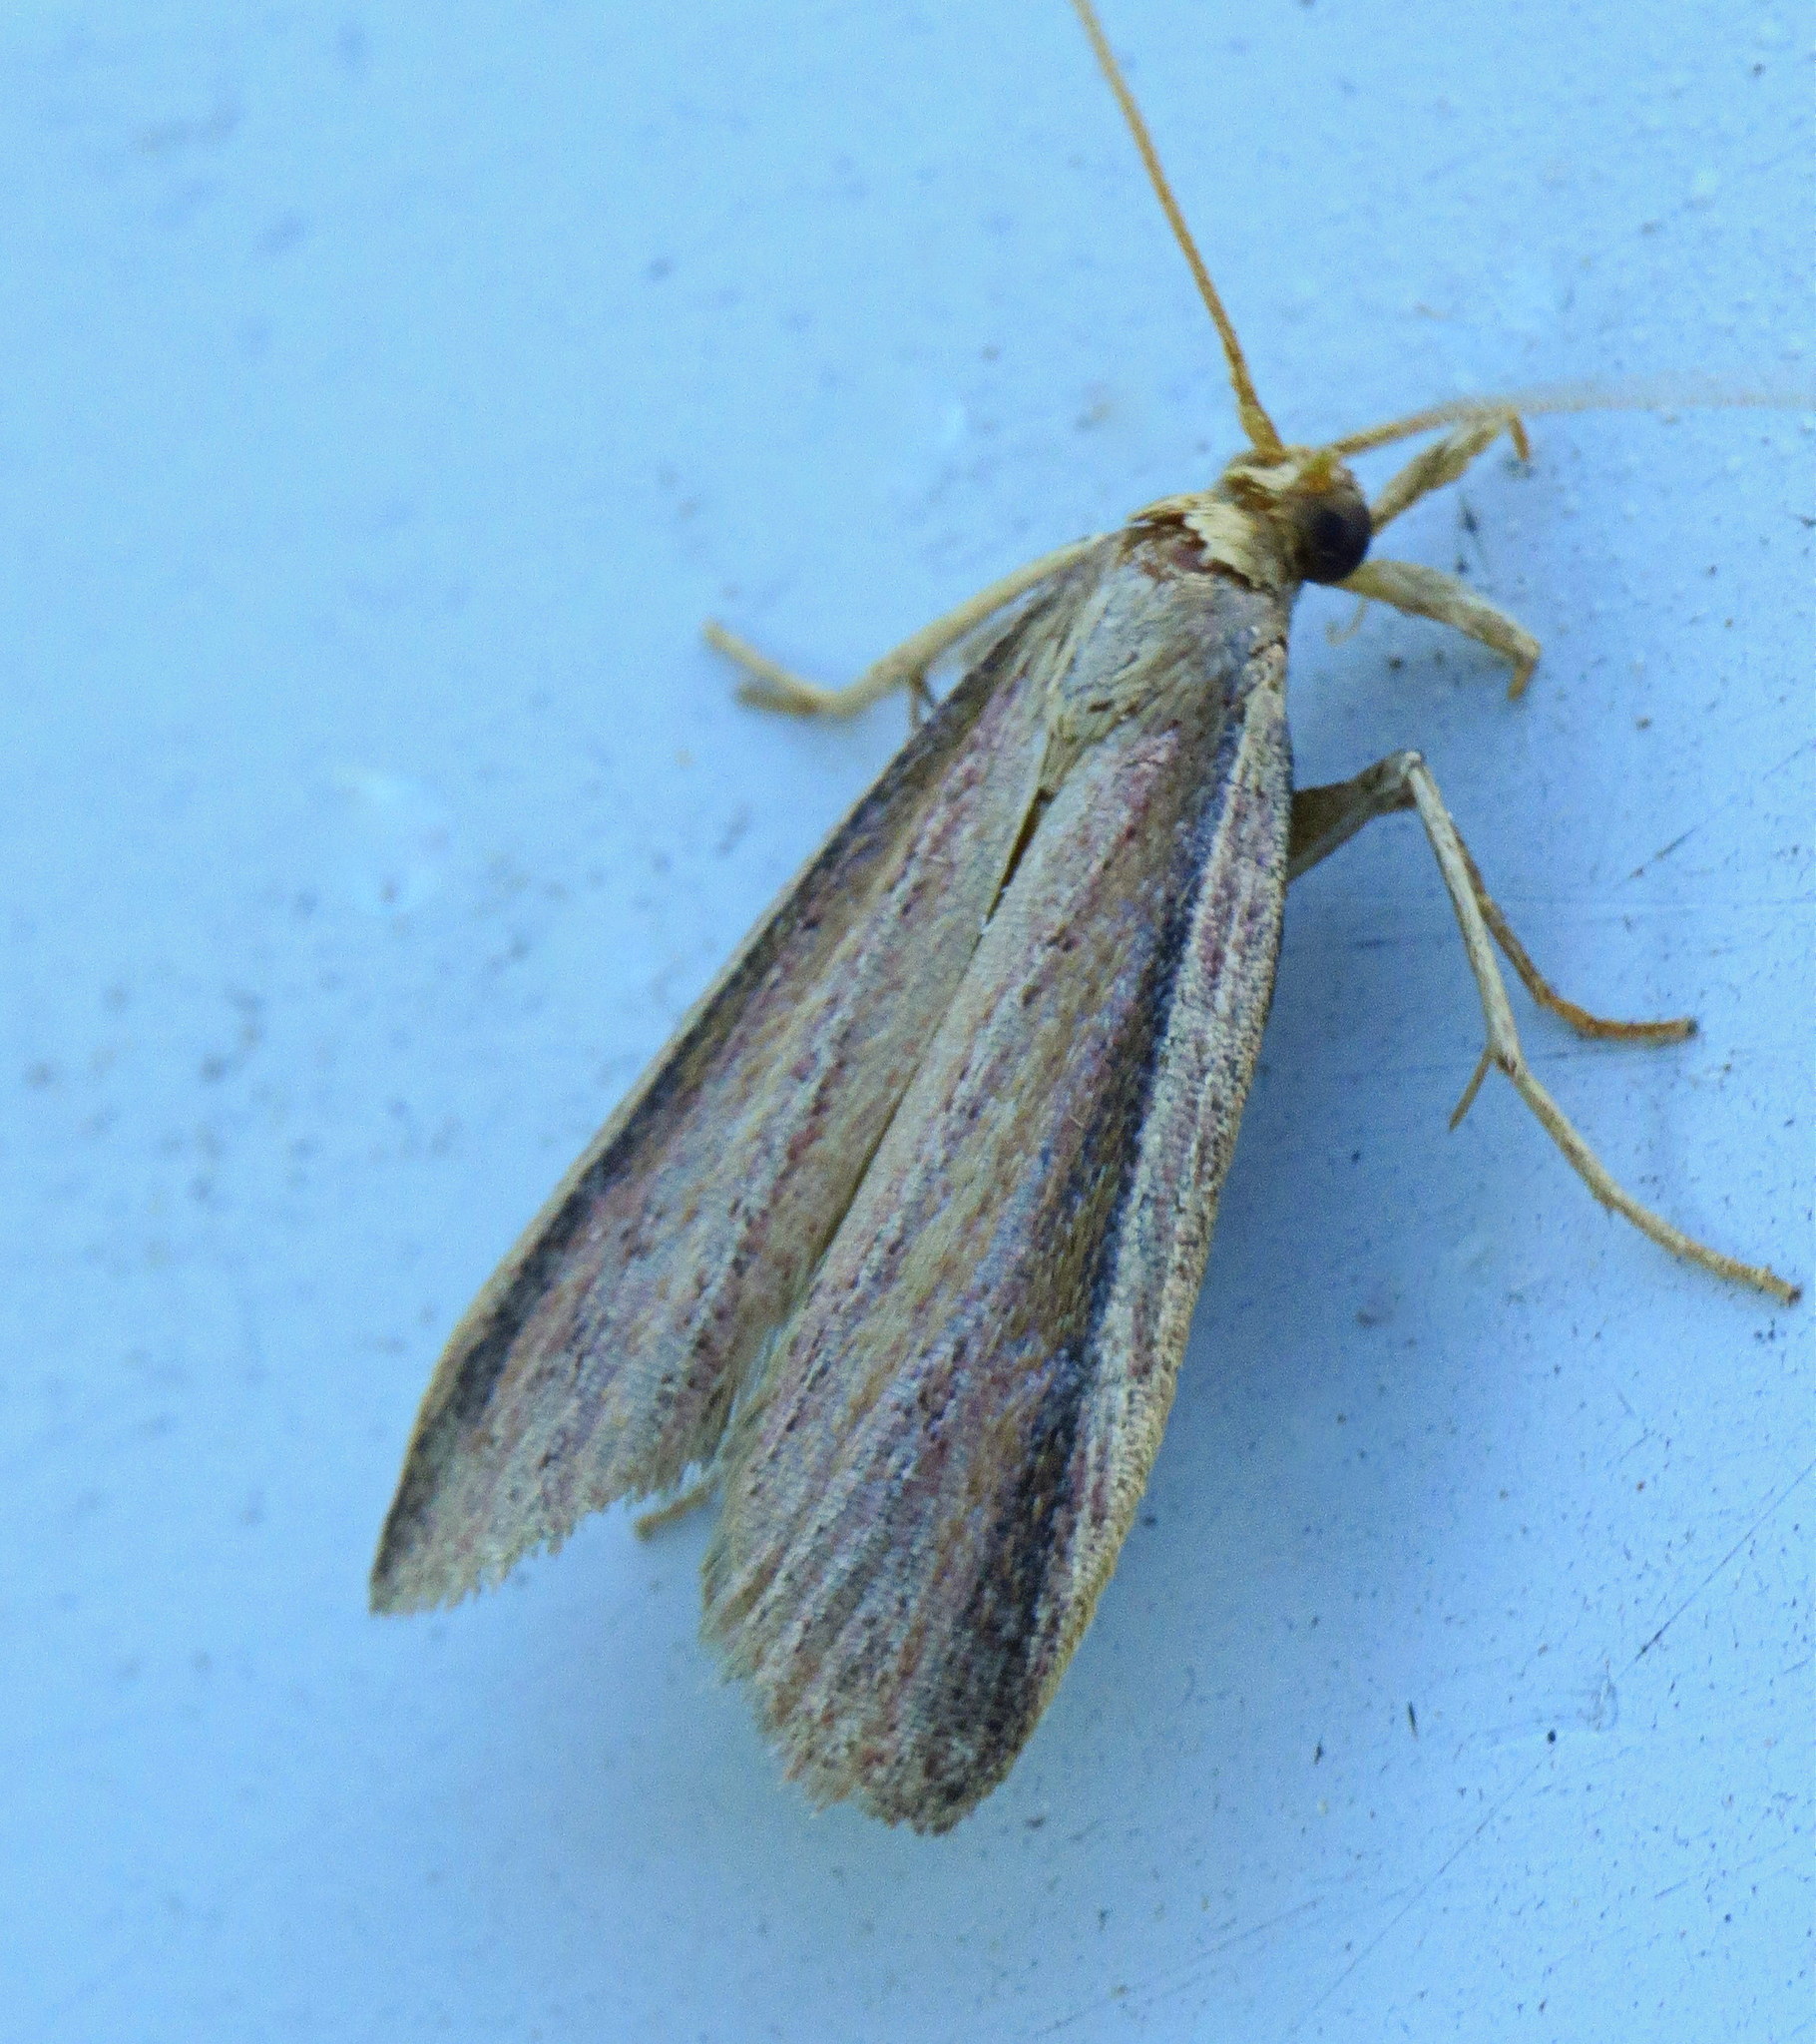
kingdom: Animalia
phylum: Arthropoda
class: Insecta
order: Lepidoptera
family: Pyralidae
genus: Peoria
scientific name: Peoria gemmatella
